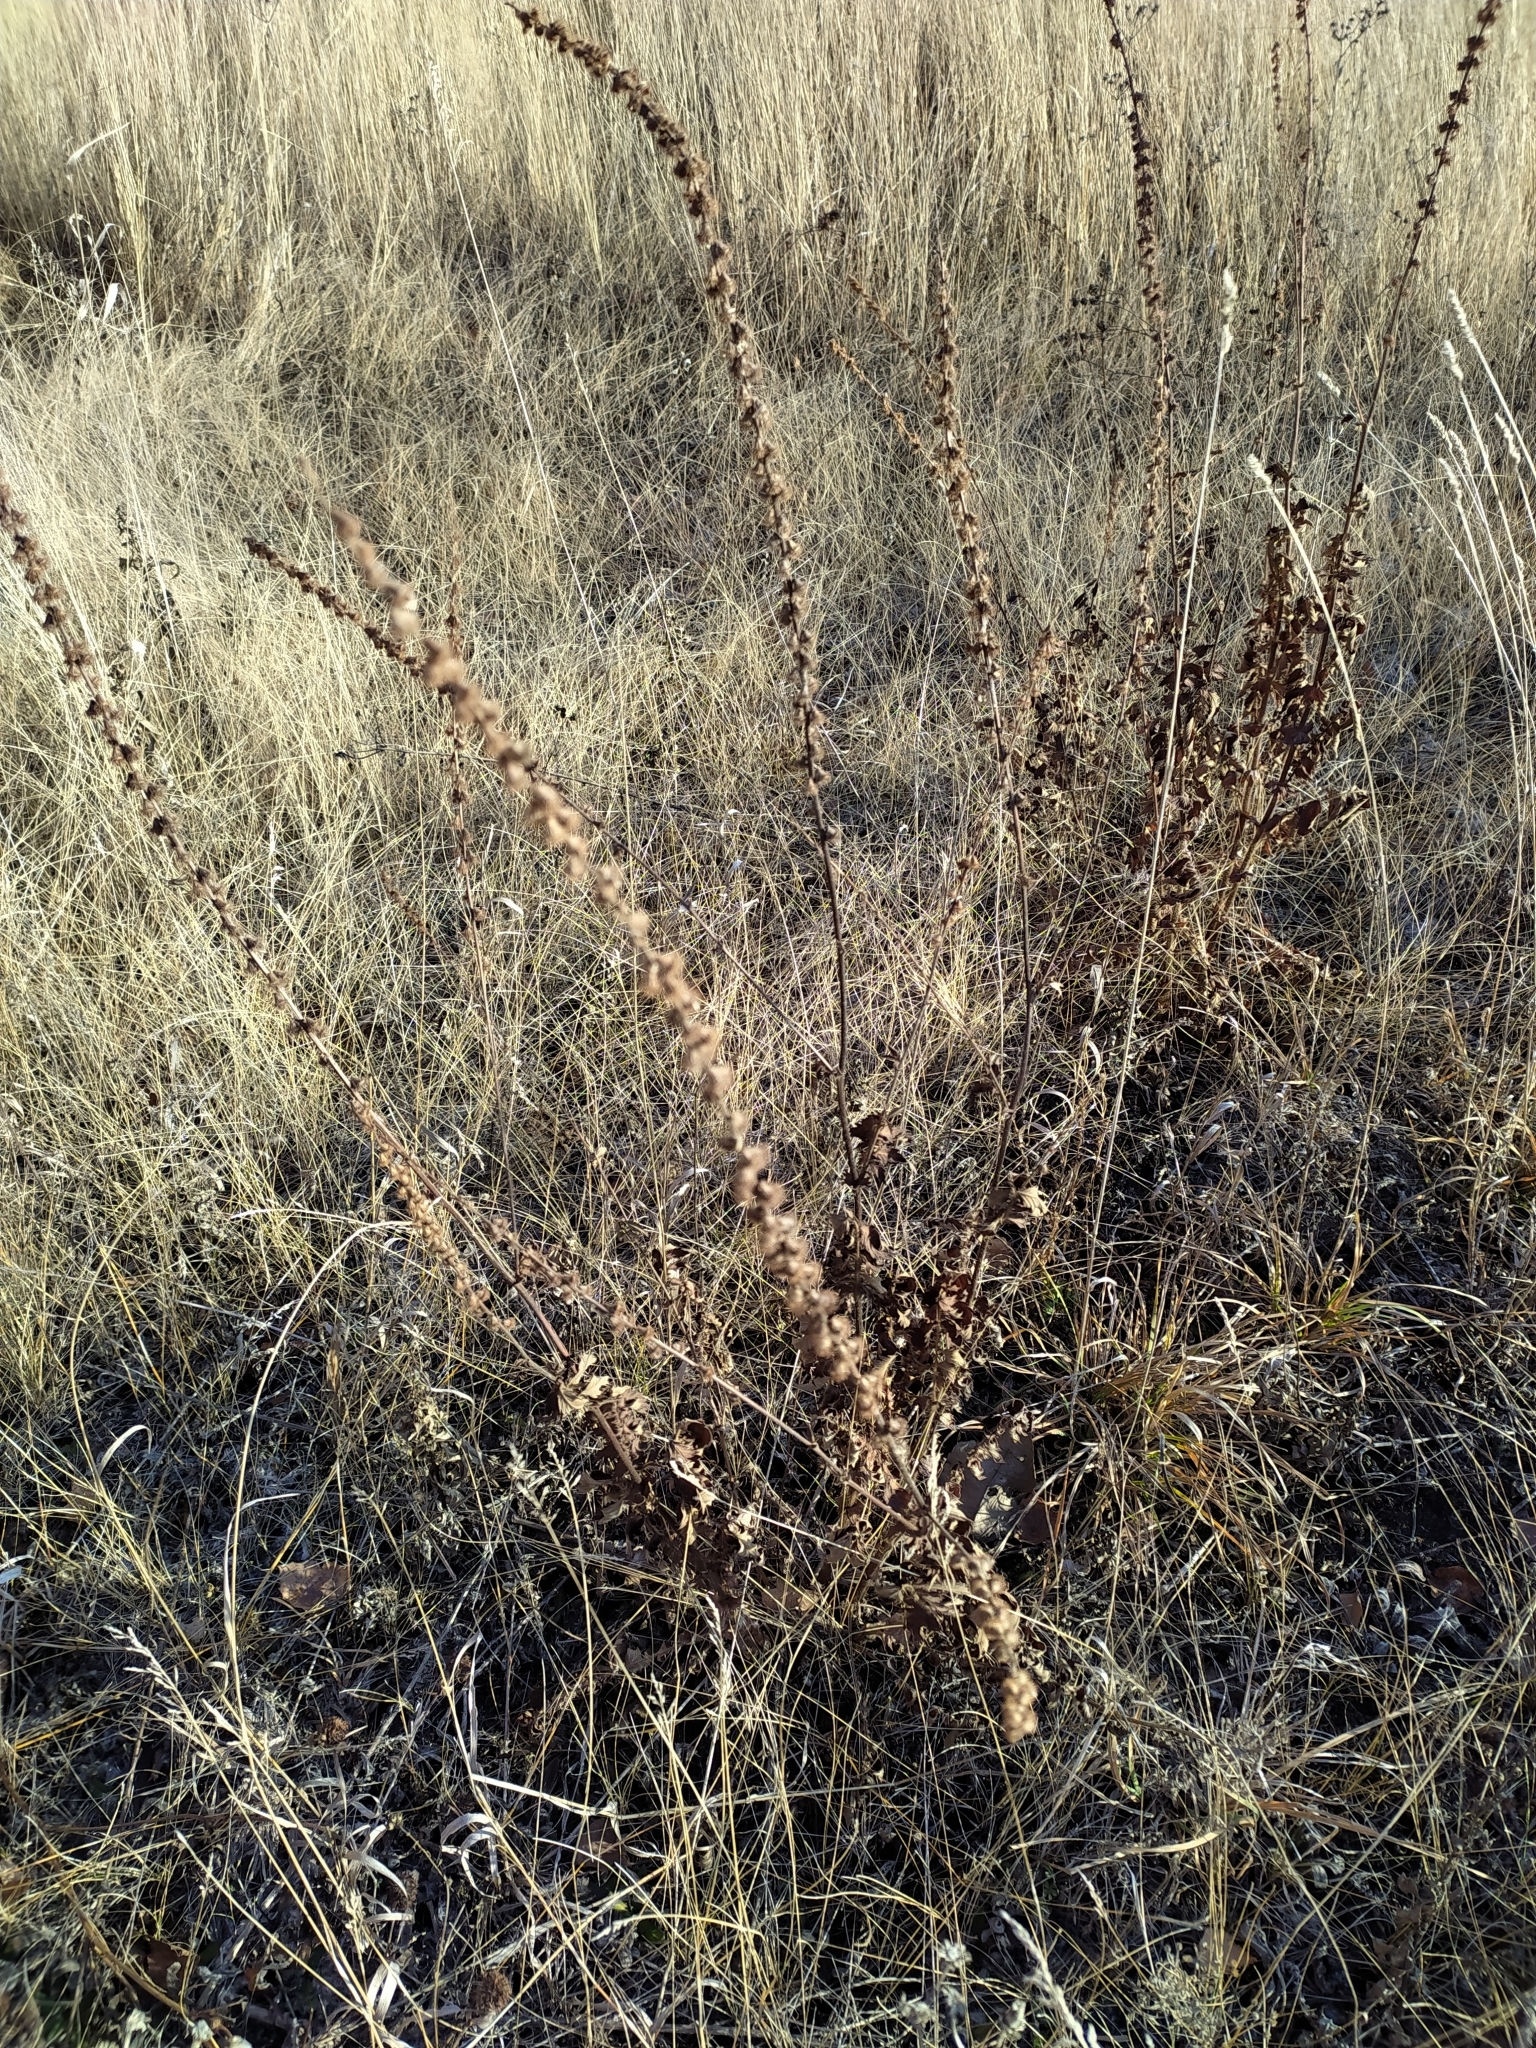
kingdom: Plantae
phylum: Tracheophyta
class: Magnoliopsida
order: Rosales
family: Rosaceae
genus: Agrimonia
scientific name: Agrimonia eupatoria
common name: Agrimony
